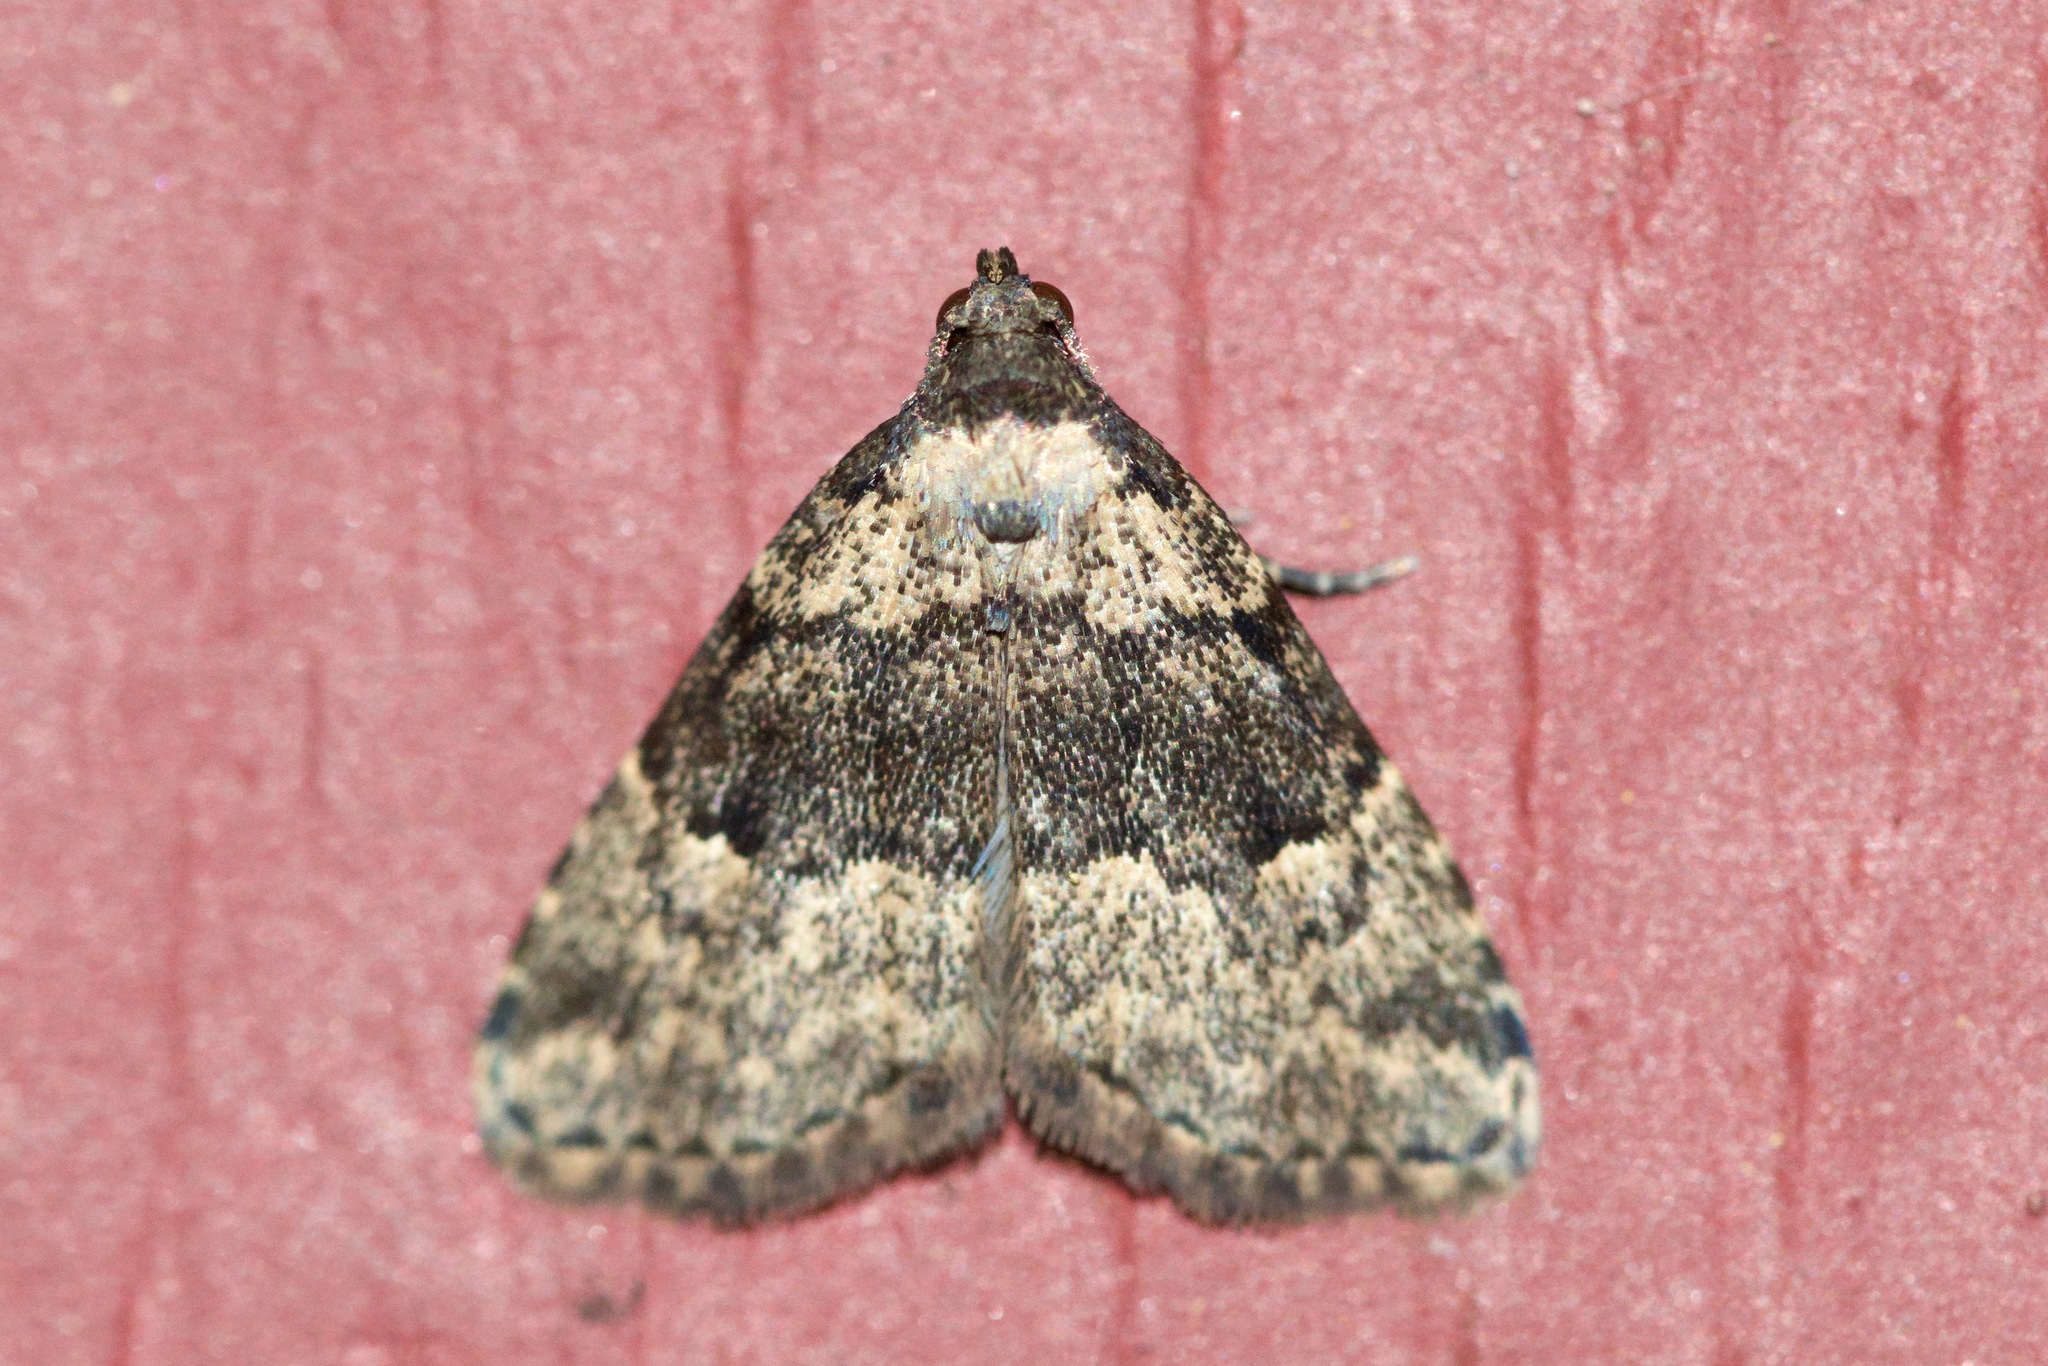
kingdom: Animalia
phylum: Arthropoda
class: Insecta
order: Lepidoptera
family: Erebidae
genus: Dyspyralis
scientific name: Dyspyralis illocata
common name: Visitation moth
